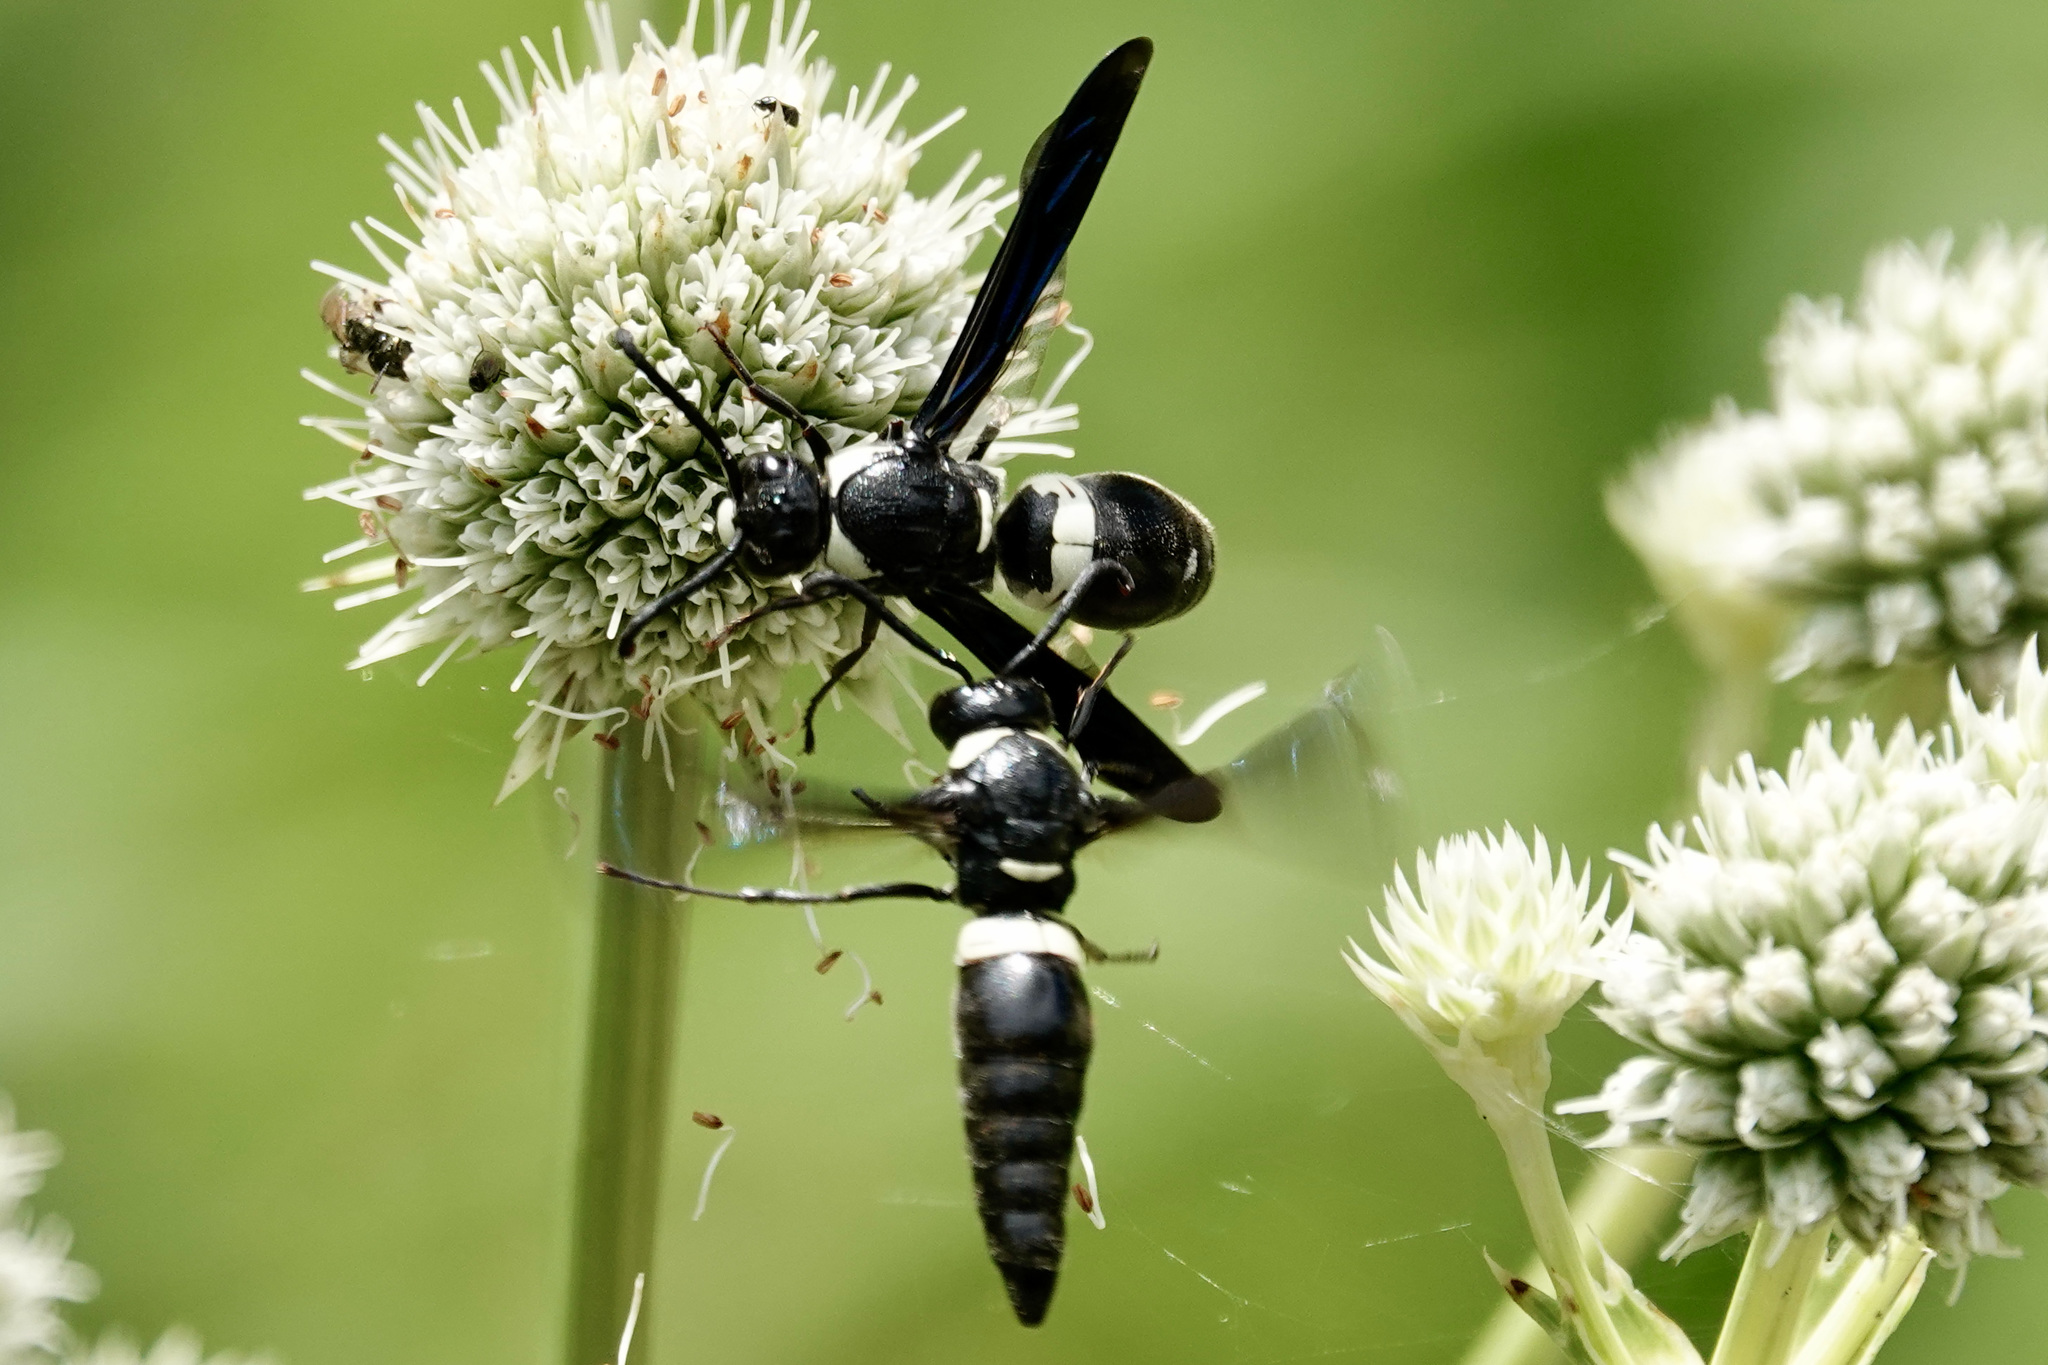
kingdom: Animalia
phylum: Arthropoda
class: Insecta
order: Hymenoptera
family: Eumenidae
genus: Monobia
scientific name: Monobia quadridens
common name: Four-toothed mason wasp
